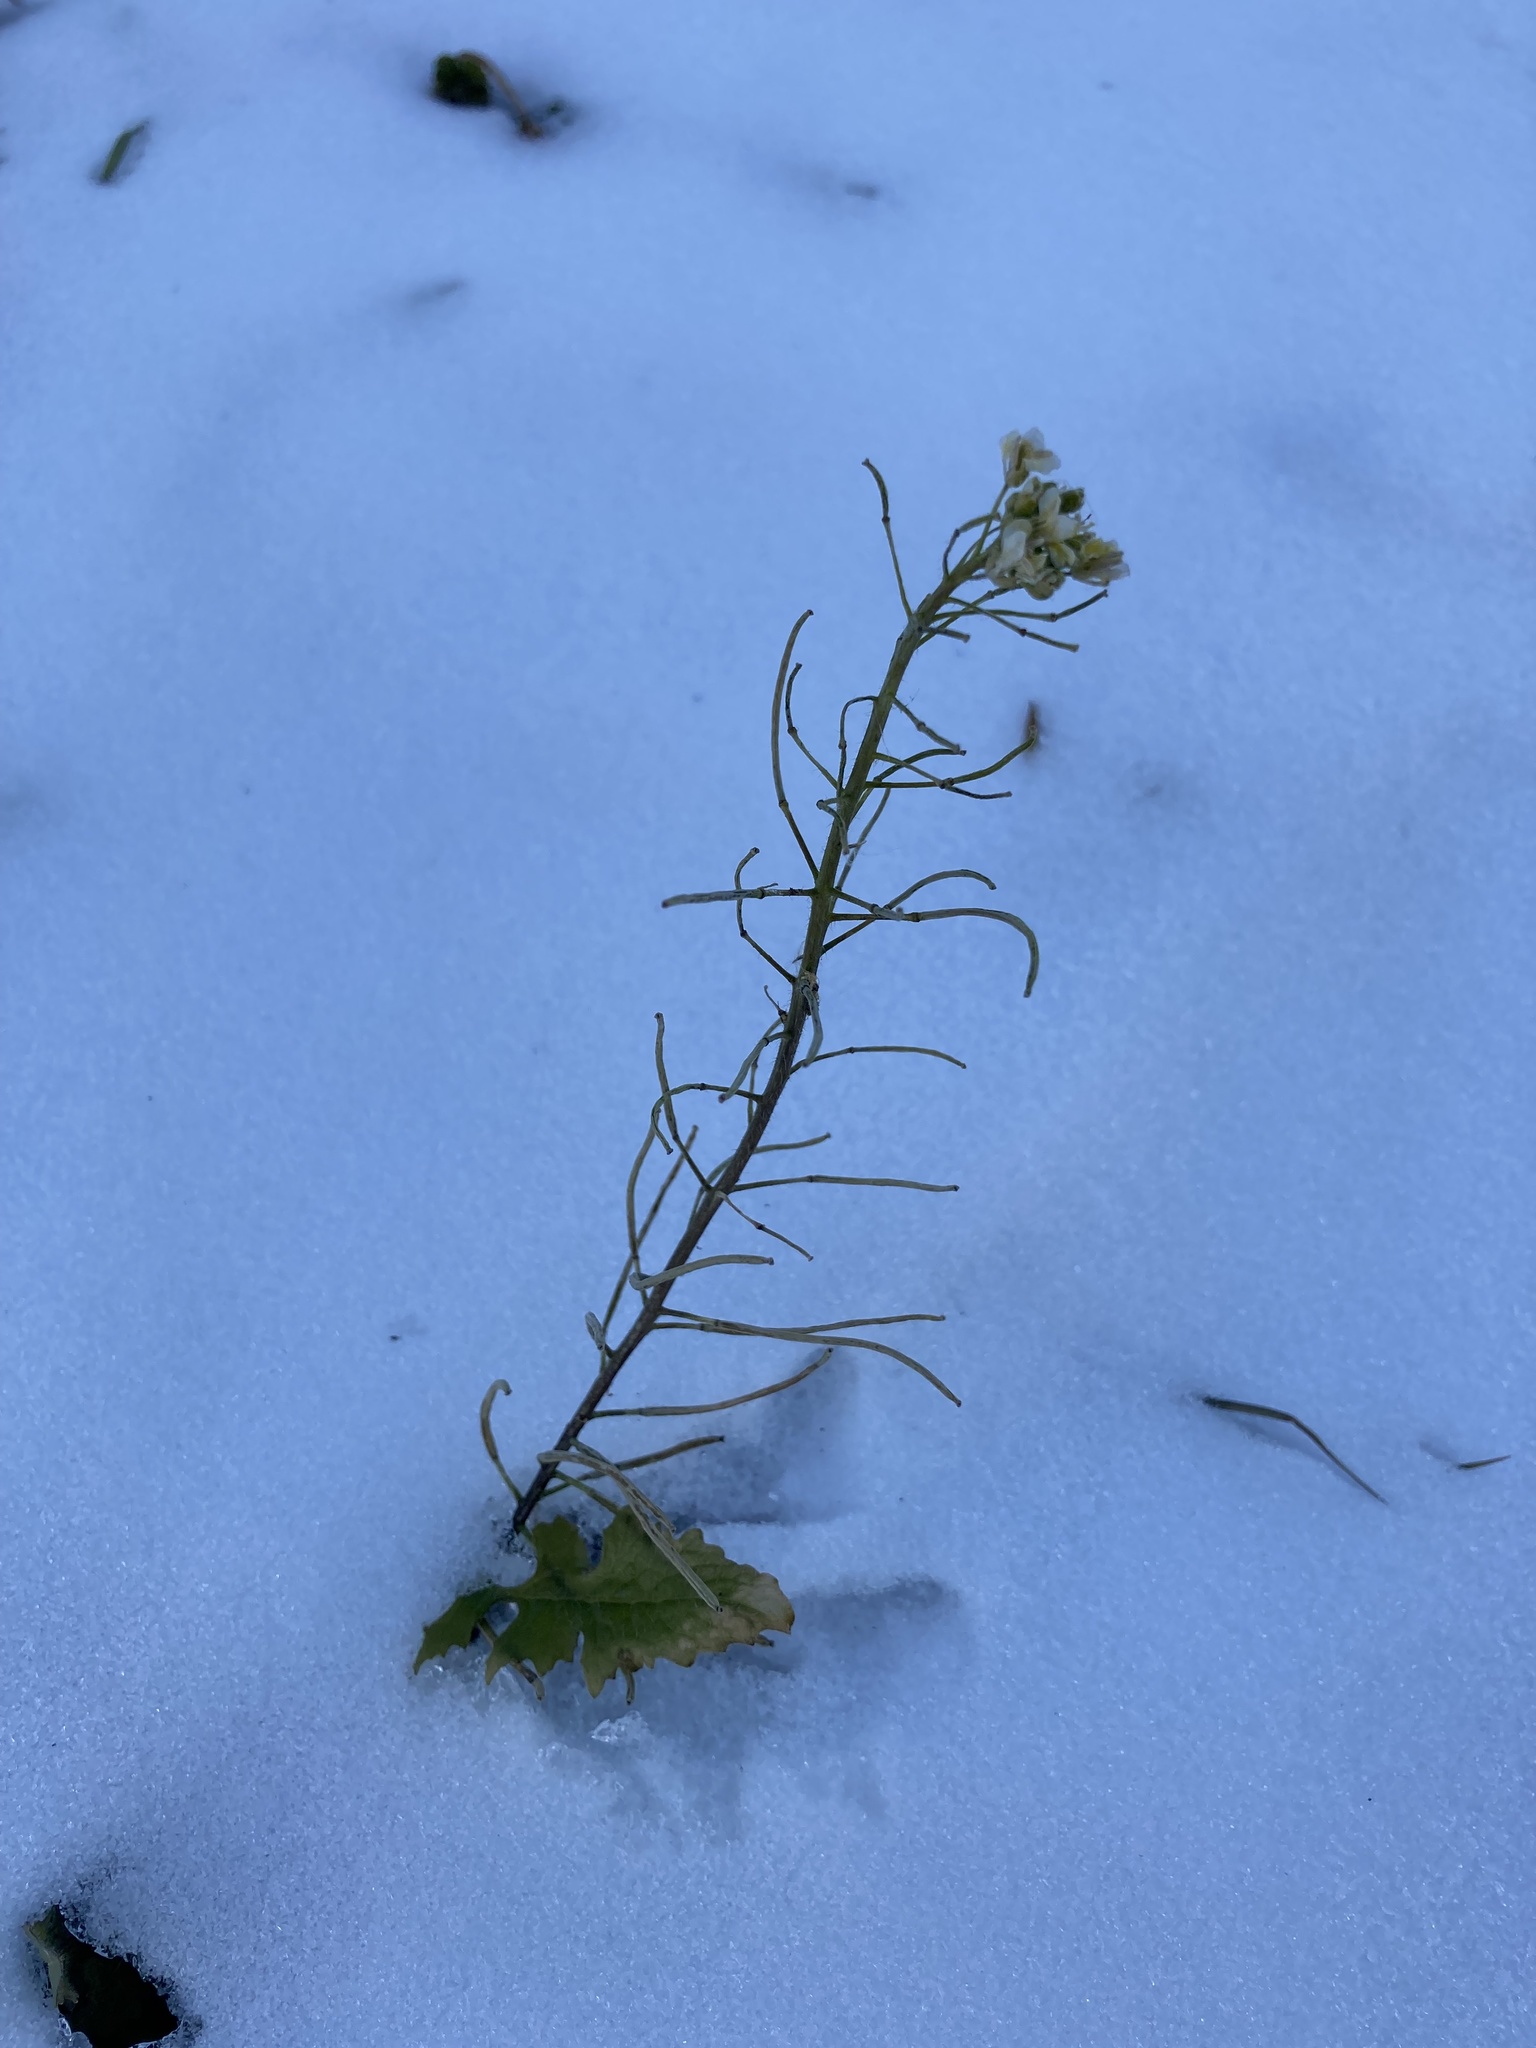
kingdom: Plantae
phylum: Tracheophyta
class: Magnoliopsida
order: Brassicales
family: Brassicaceae
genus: Sisymbrium
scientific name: Sisymbrium loeselii
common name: False london-rocket
